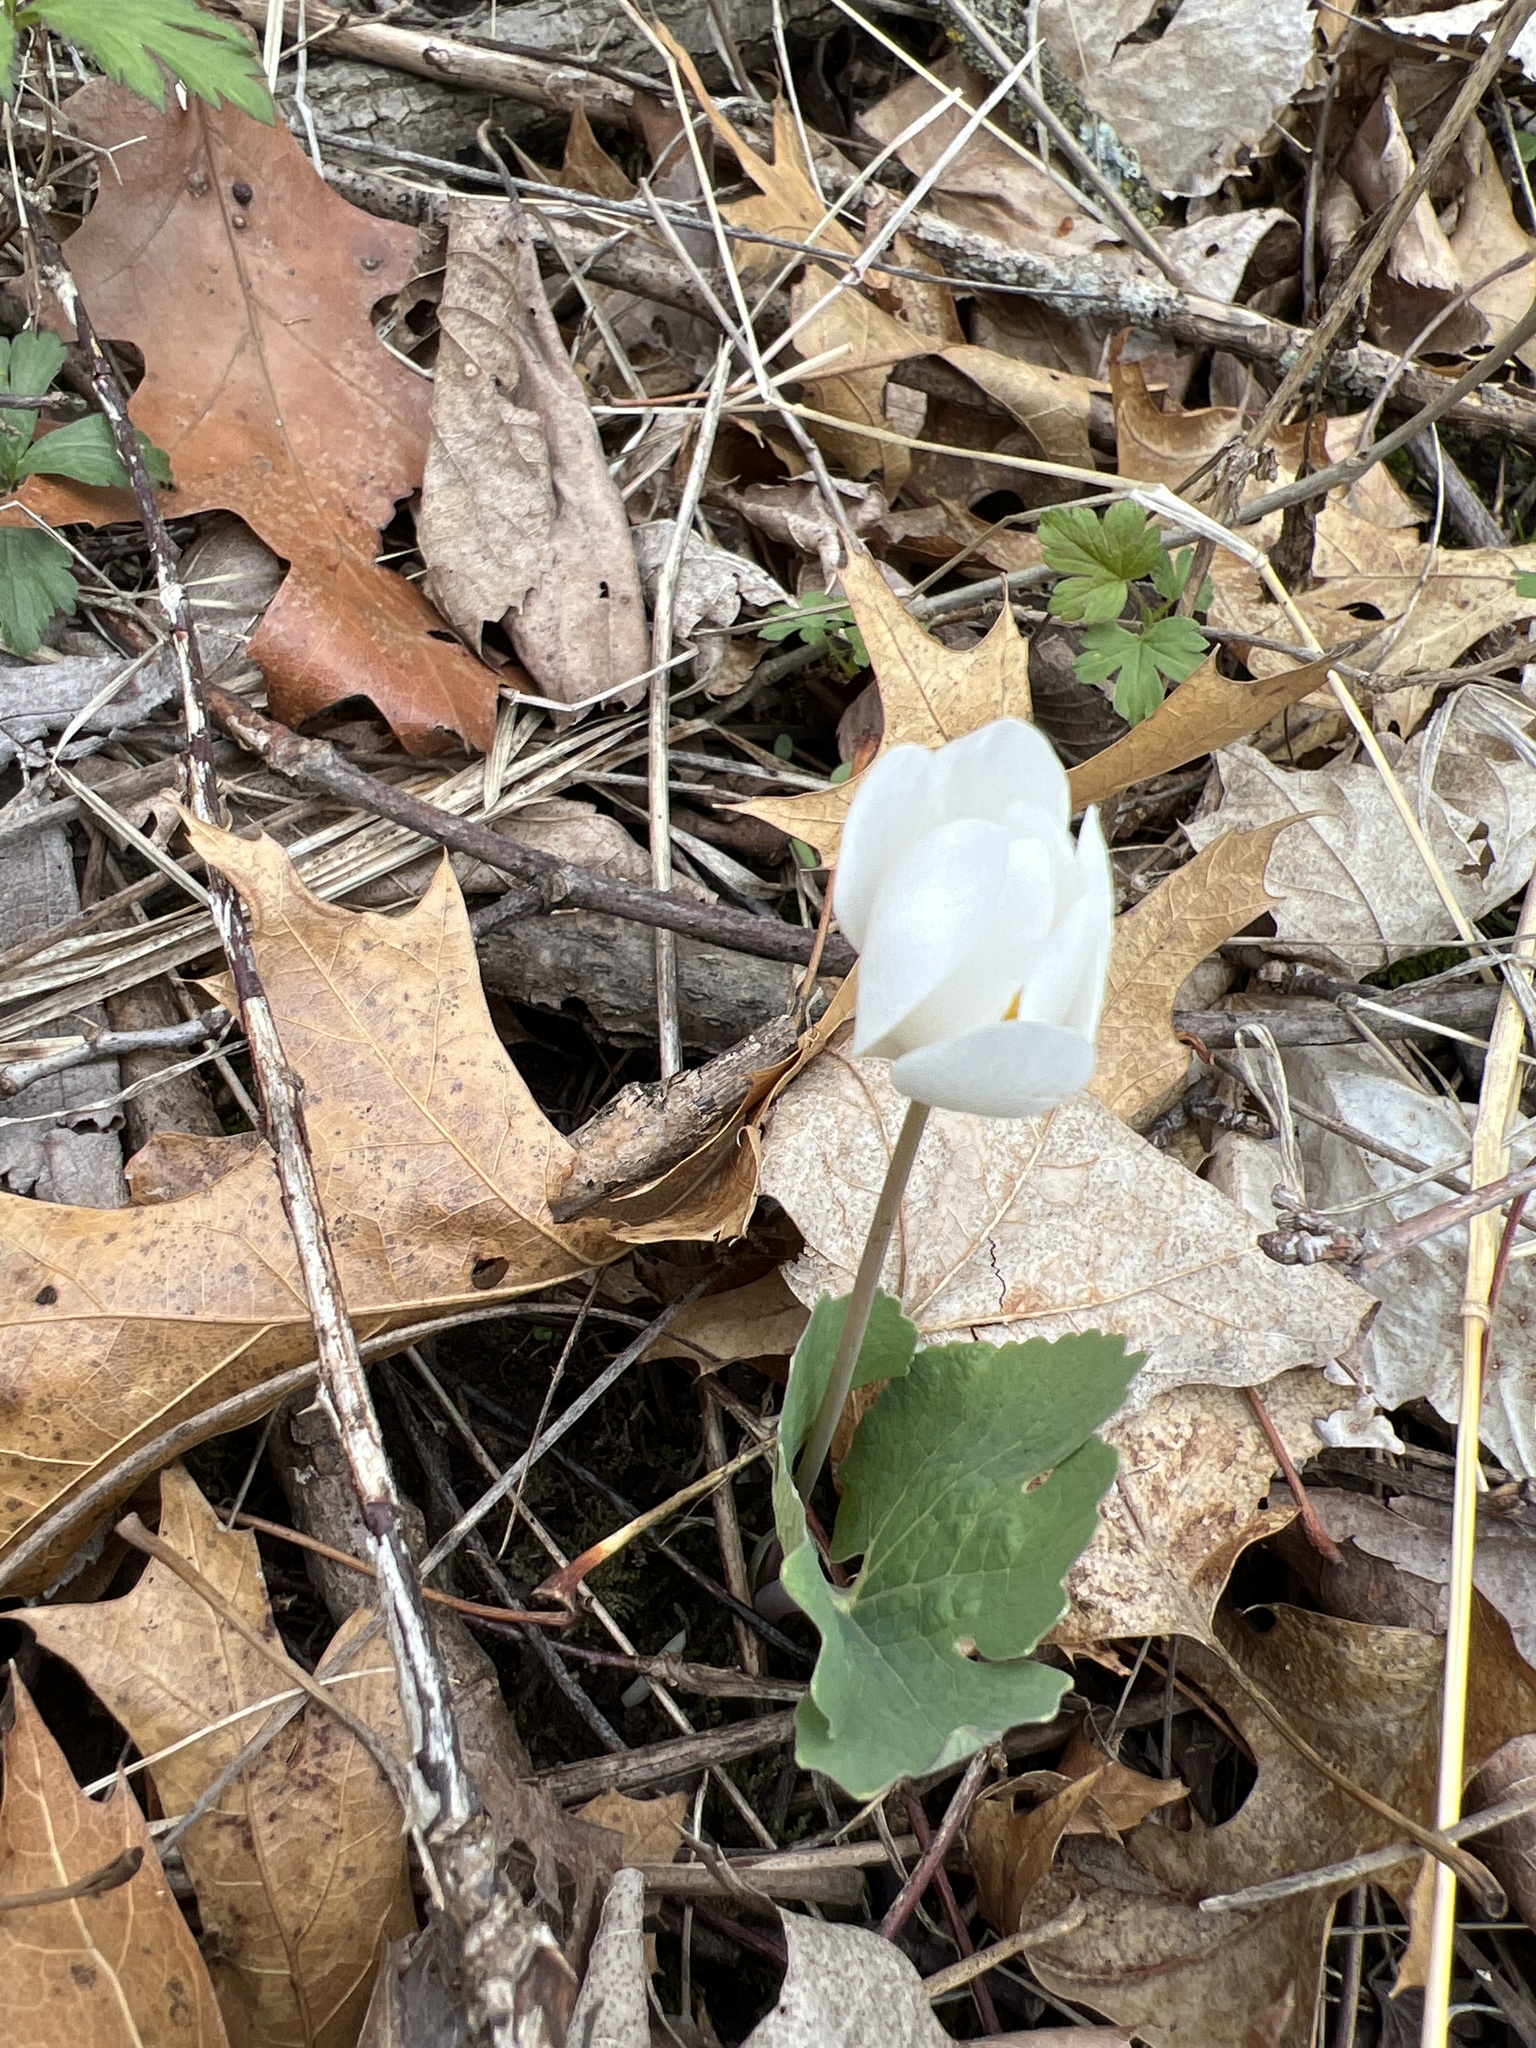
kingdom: Plantae
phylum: Tracheophyta
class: Magnoliopsida
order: Ranunculales
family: Papaveraceae
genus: Sanguinaria
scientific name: Sanguinaria canadensis
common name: Bloodroot
